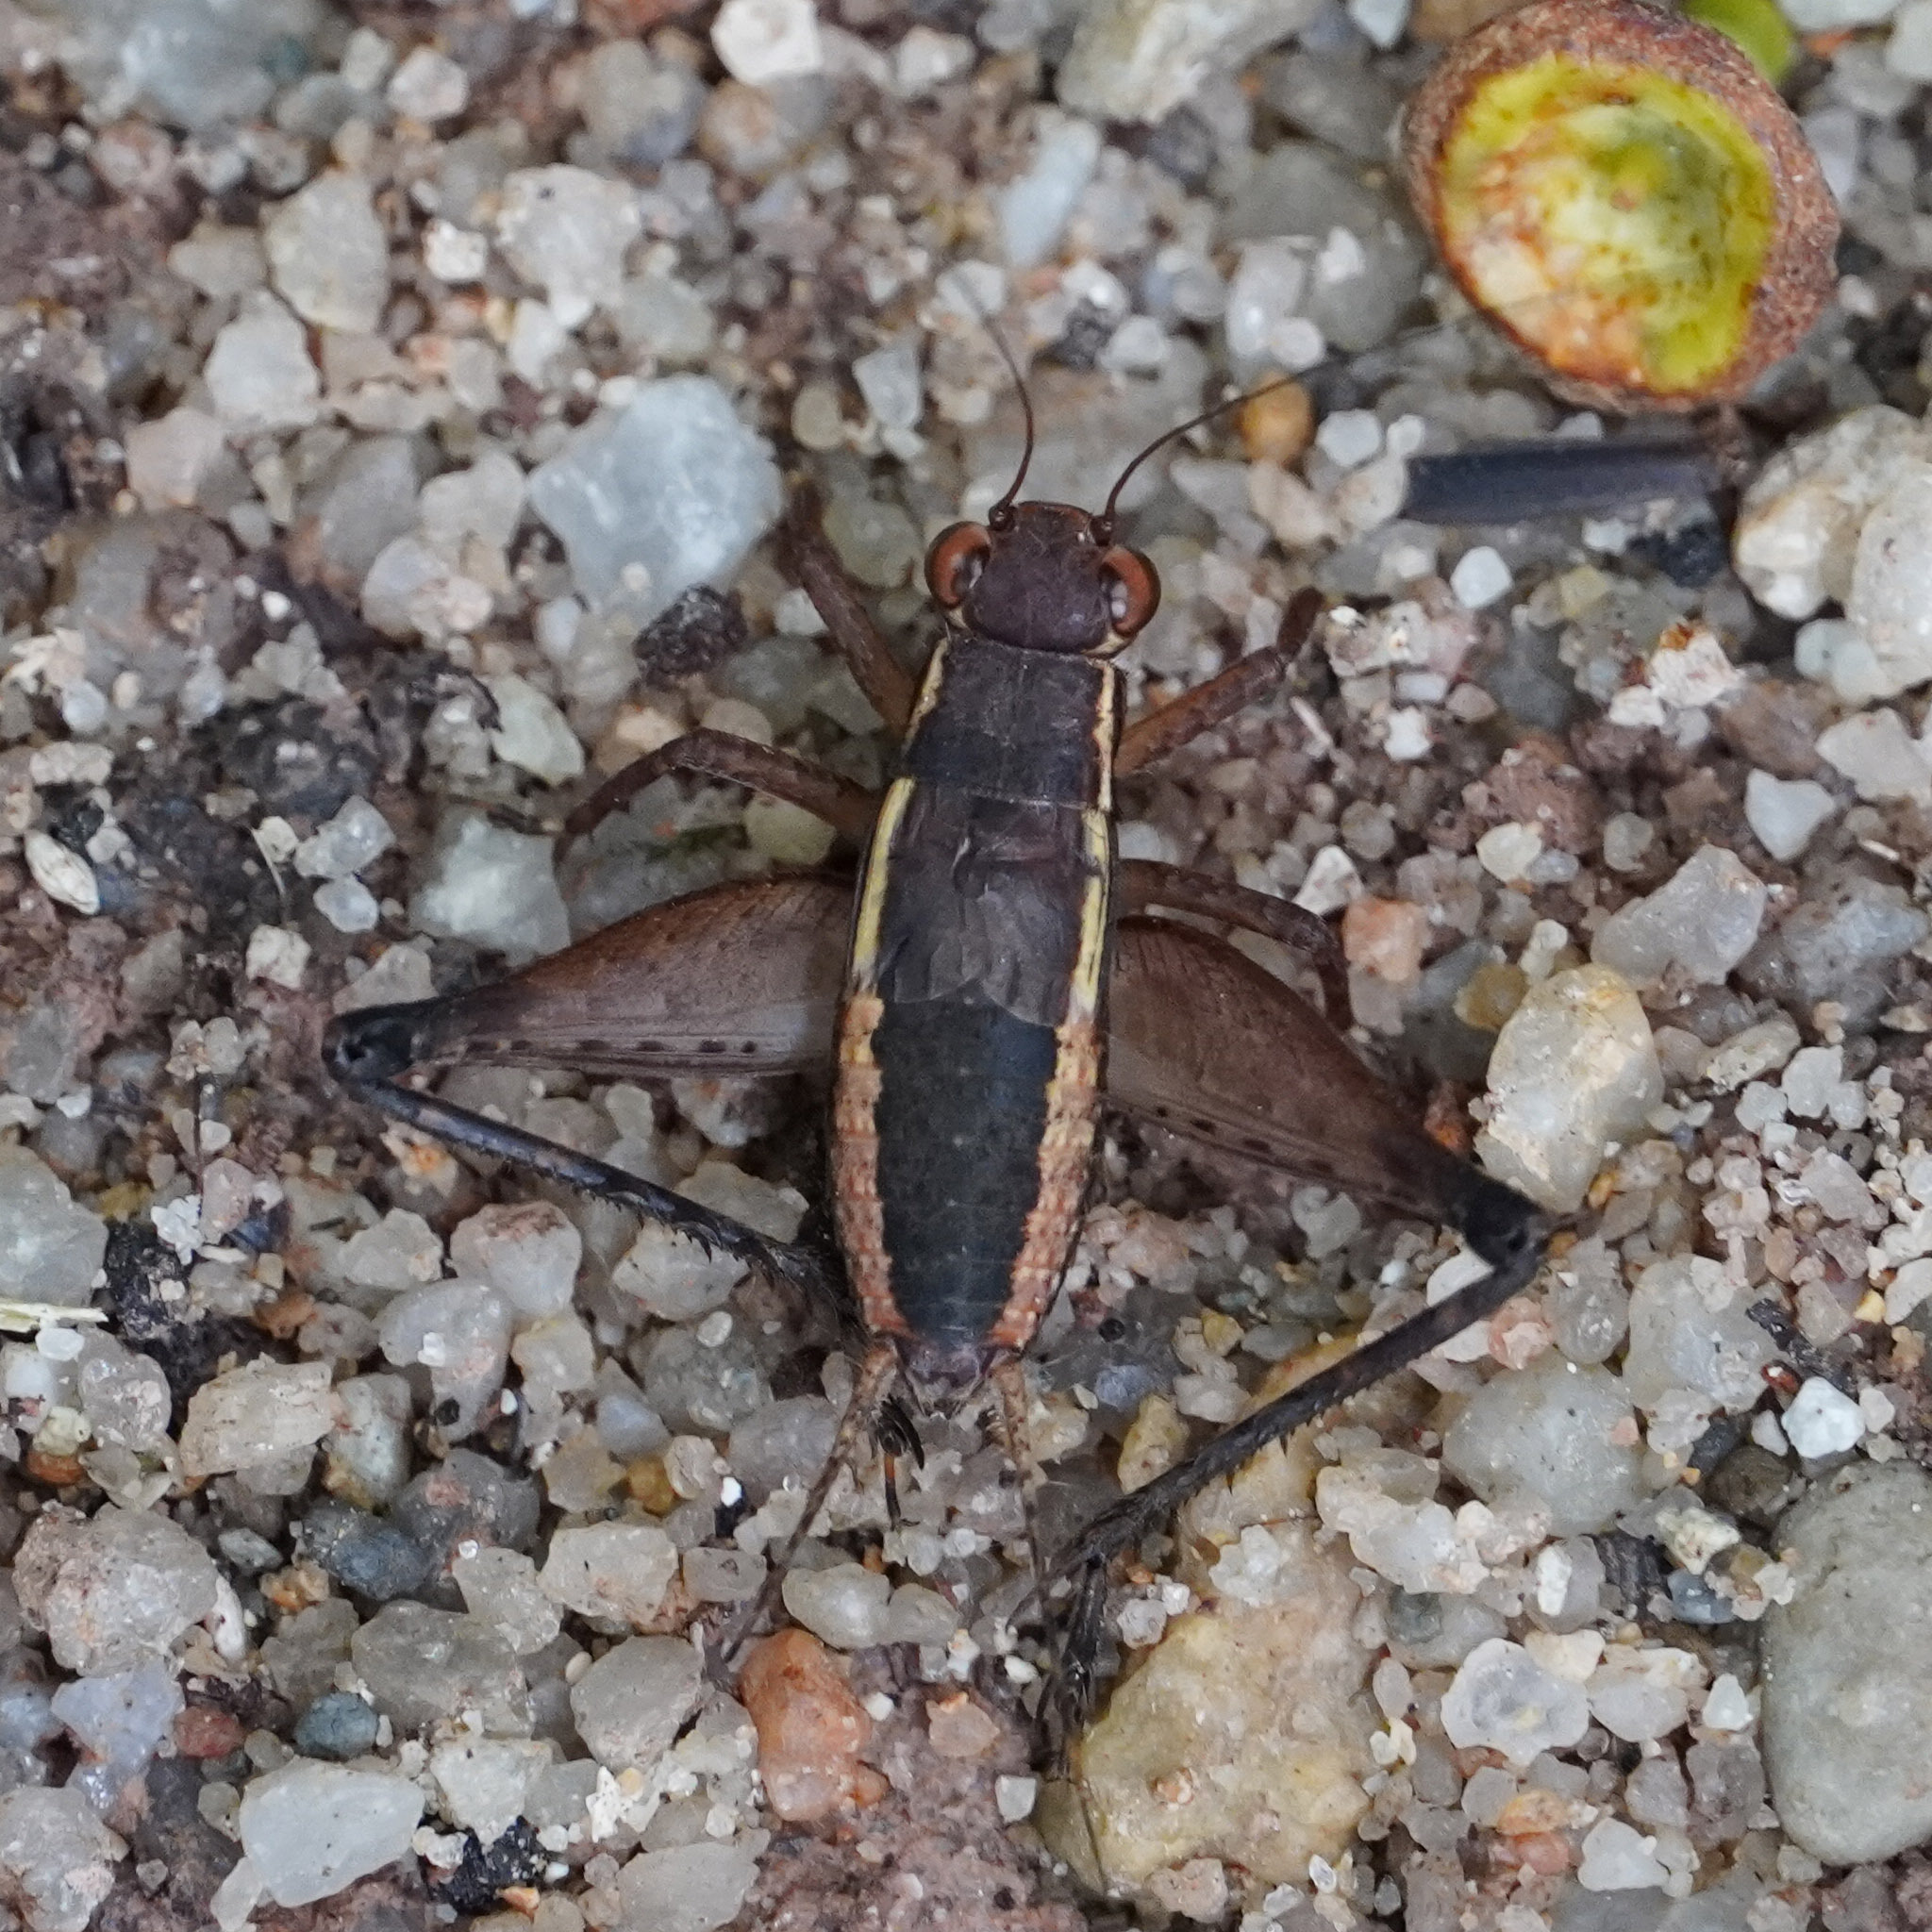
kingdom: Animalia
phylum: Arthropoda
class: Insecta
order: Orthoptera
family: Gryllidae
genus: Lebinthus
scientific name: Lebinthus luae
